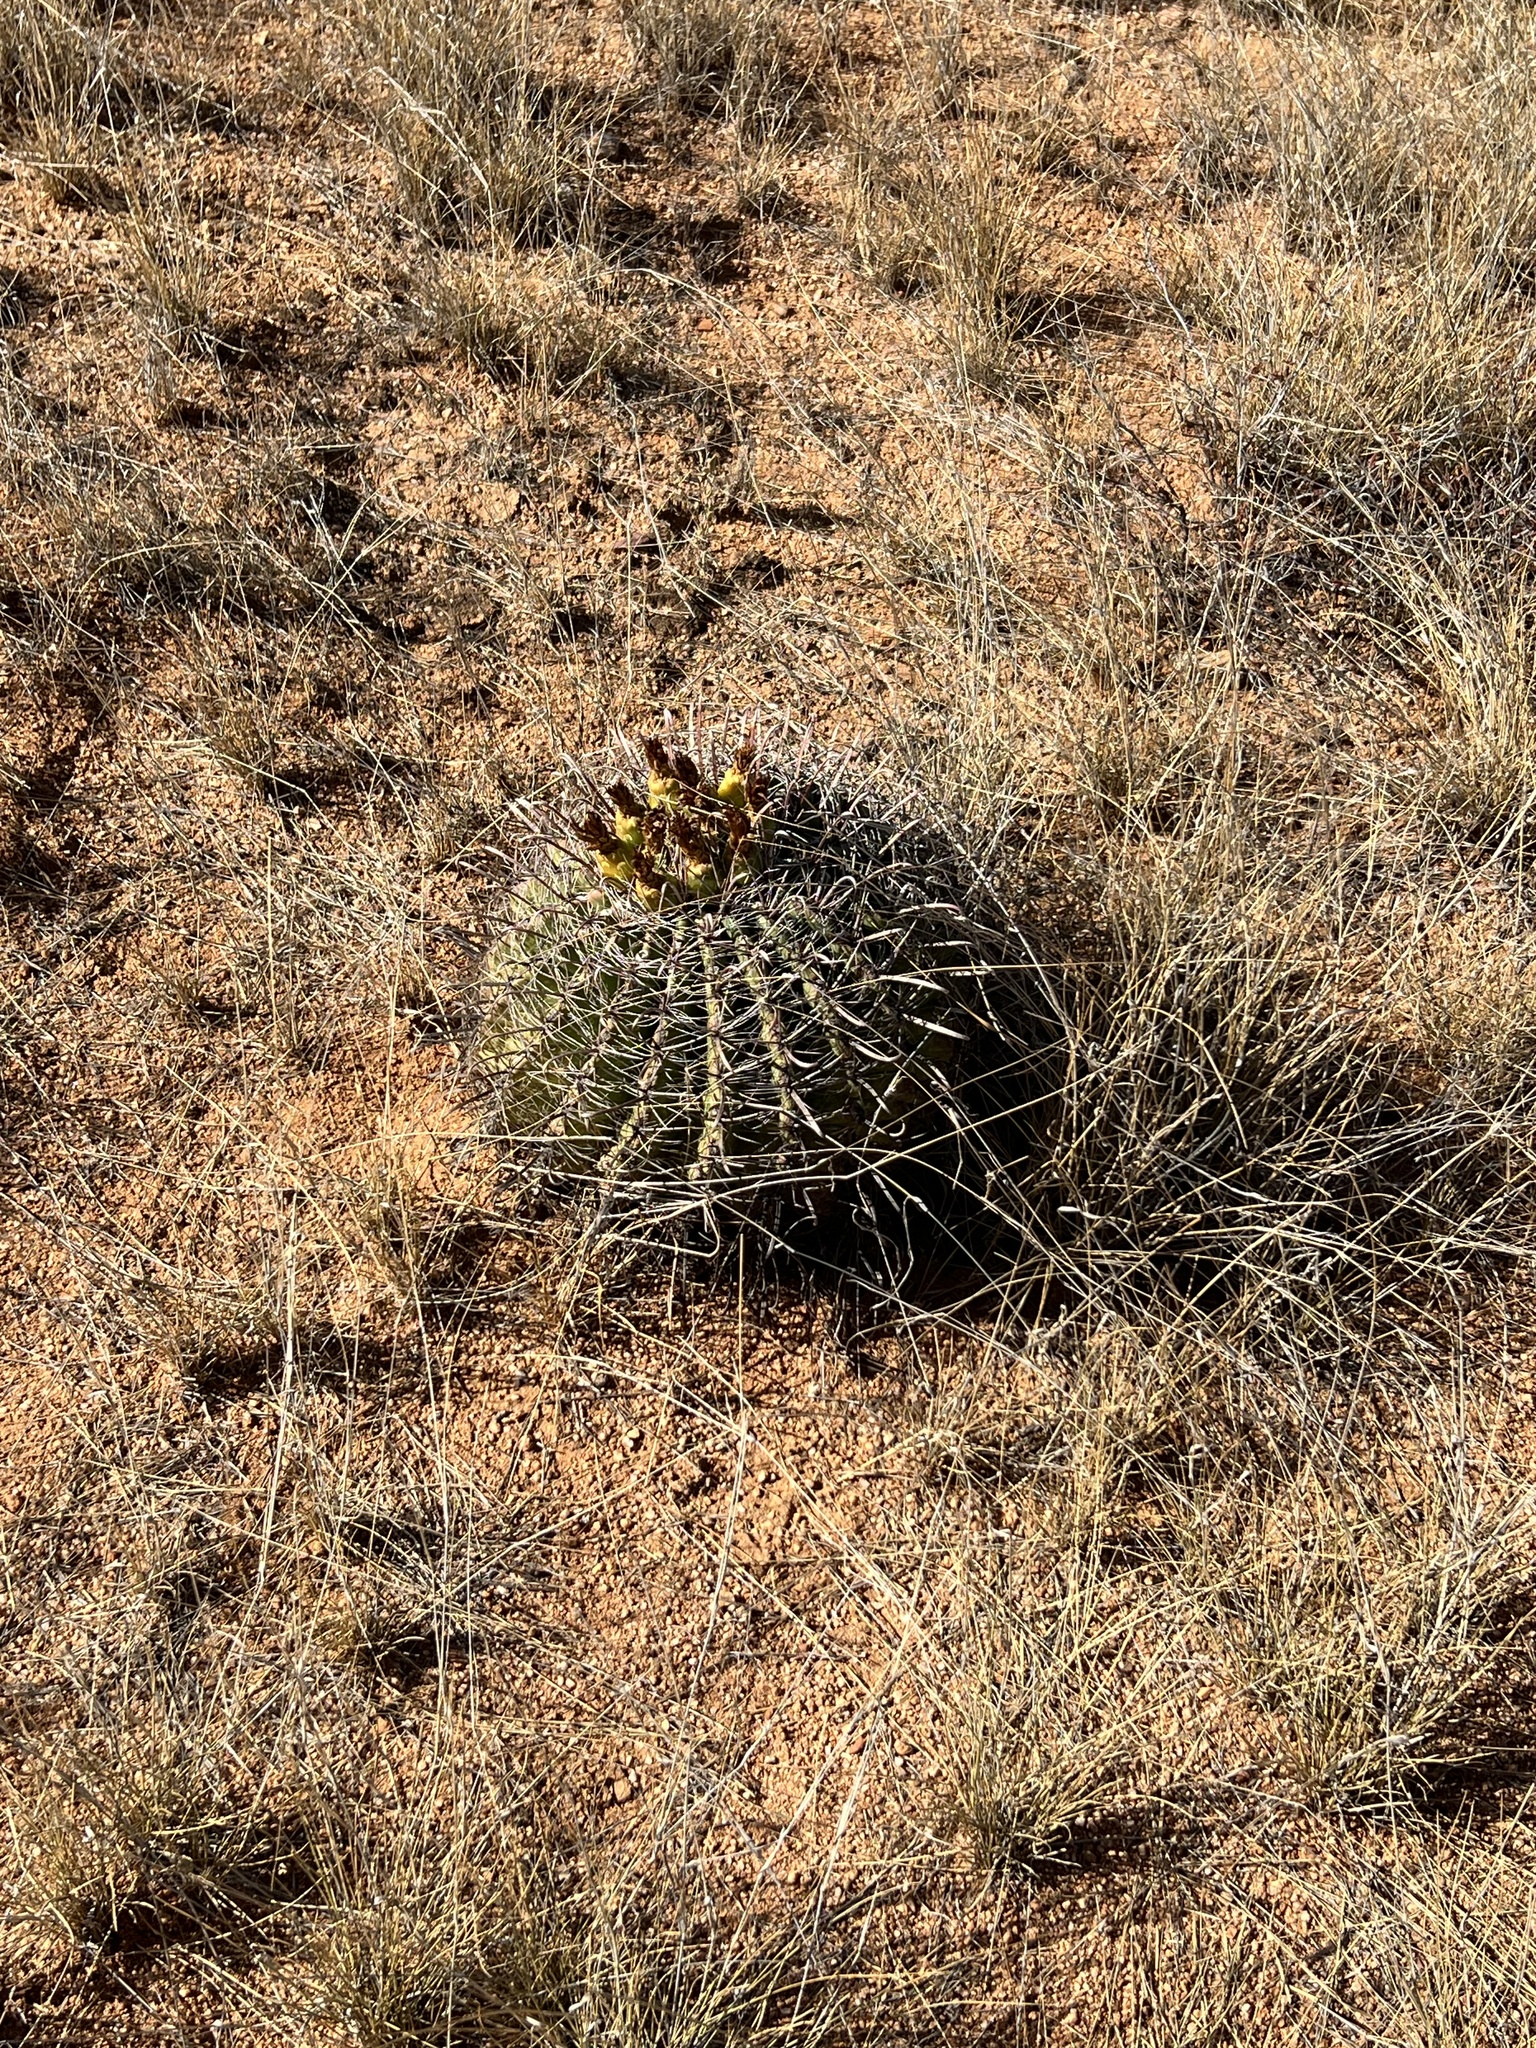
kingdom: Plantae
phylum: Tracheophyta
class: Magnoliopsida
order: Caryophyllales
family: Cactaceae
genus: Ferocactus
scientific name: Ferocactus wislizeni
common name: Candy barrel cactus
